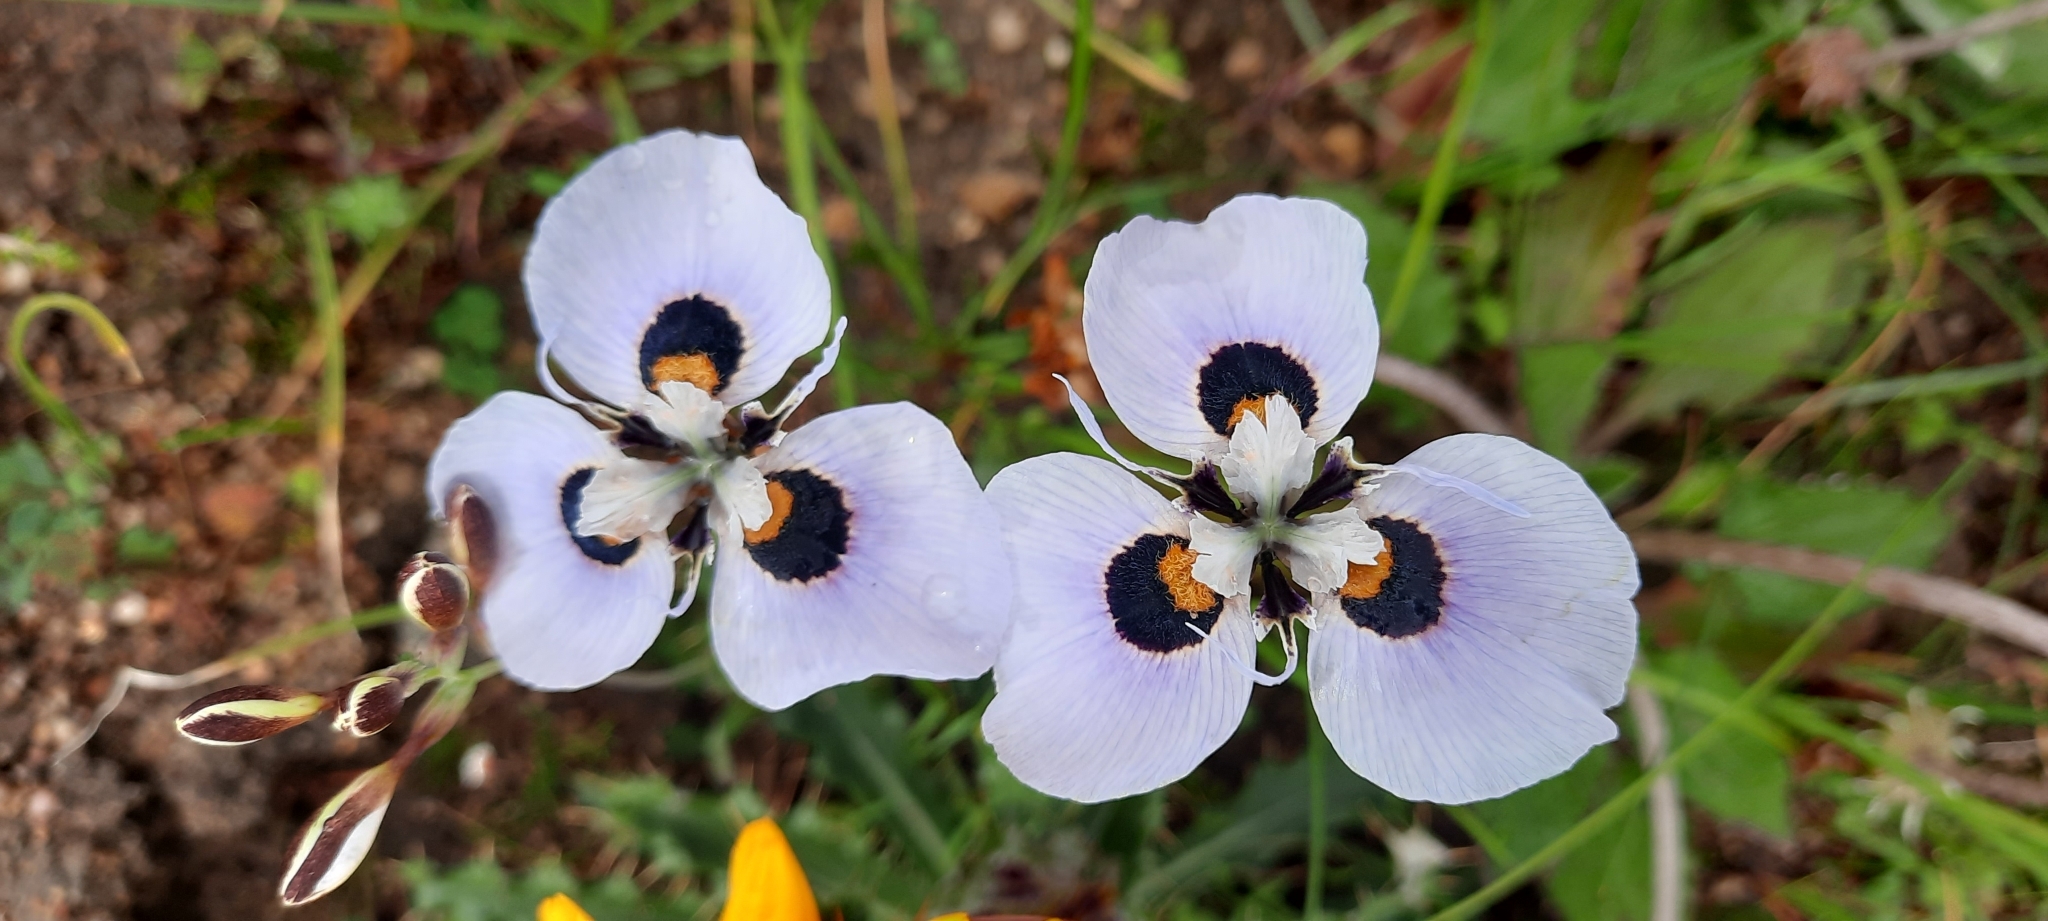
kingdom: Plantae
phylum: Tracheophyta
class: Liliopsida
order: Asparagales
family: Iridaceae
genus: Moraea
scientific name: Moraea villosa
